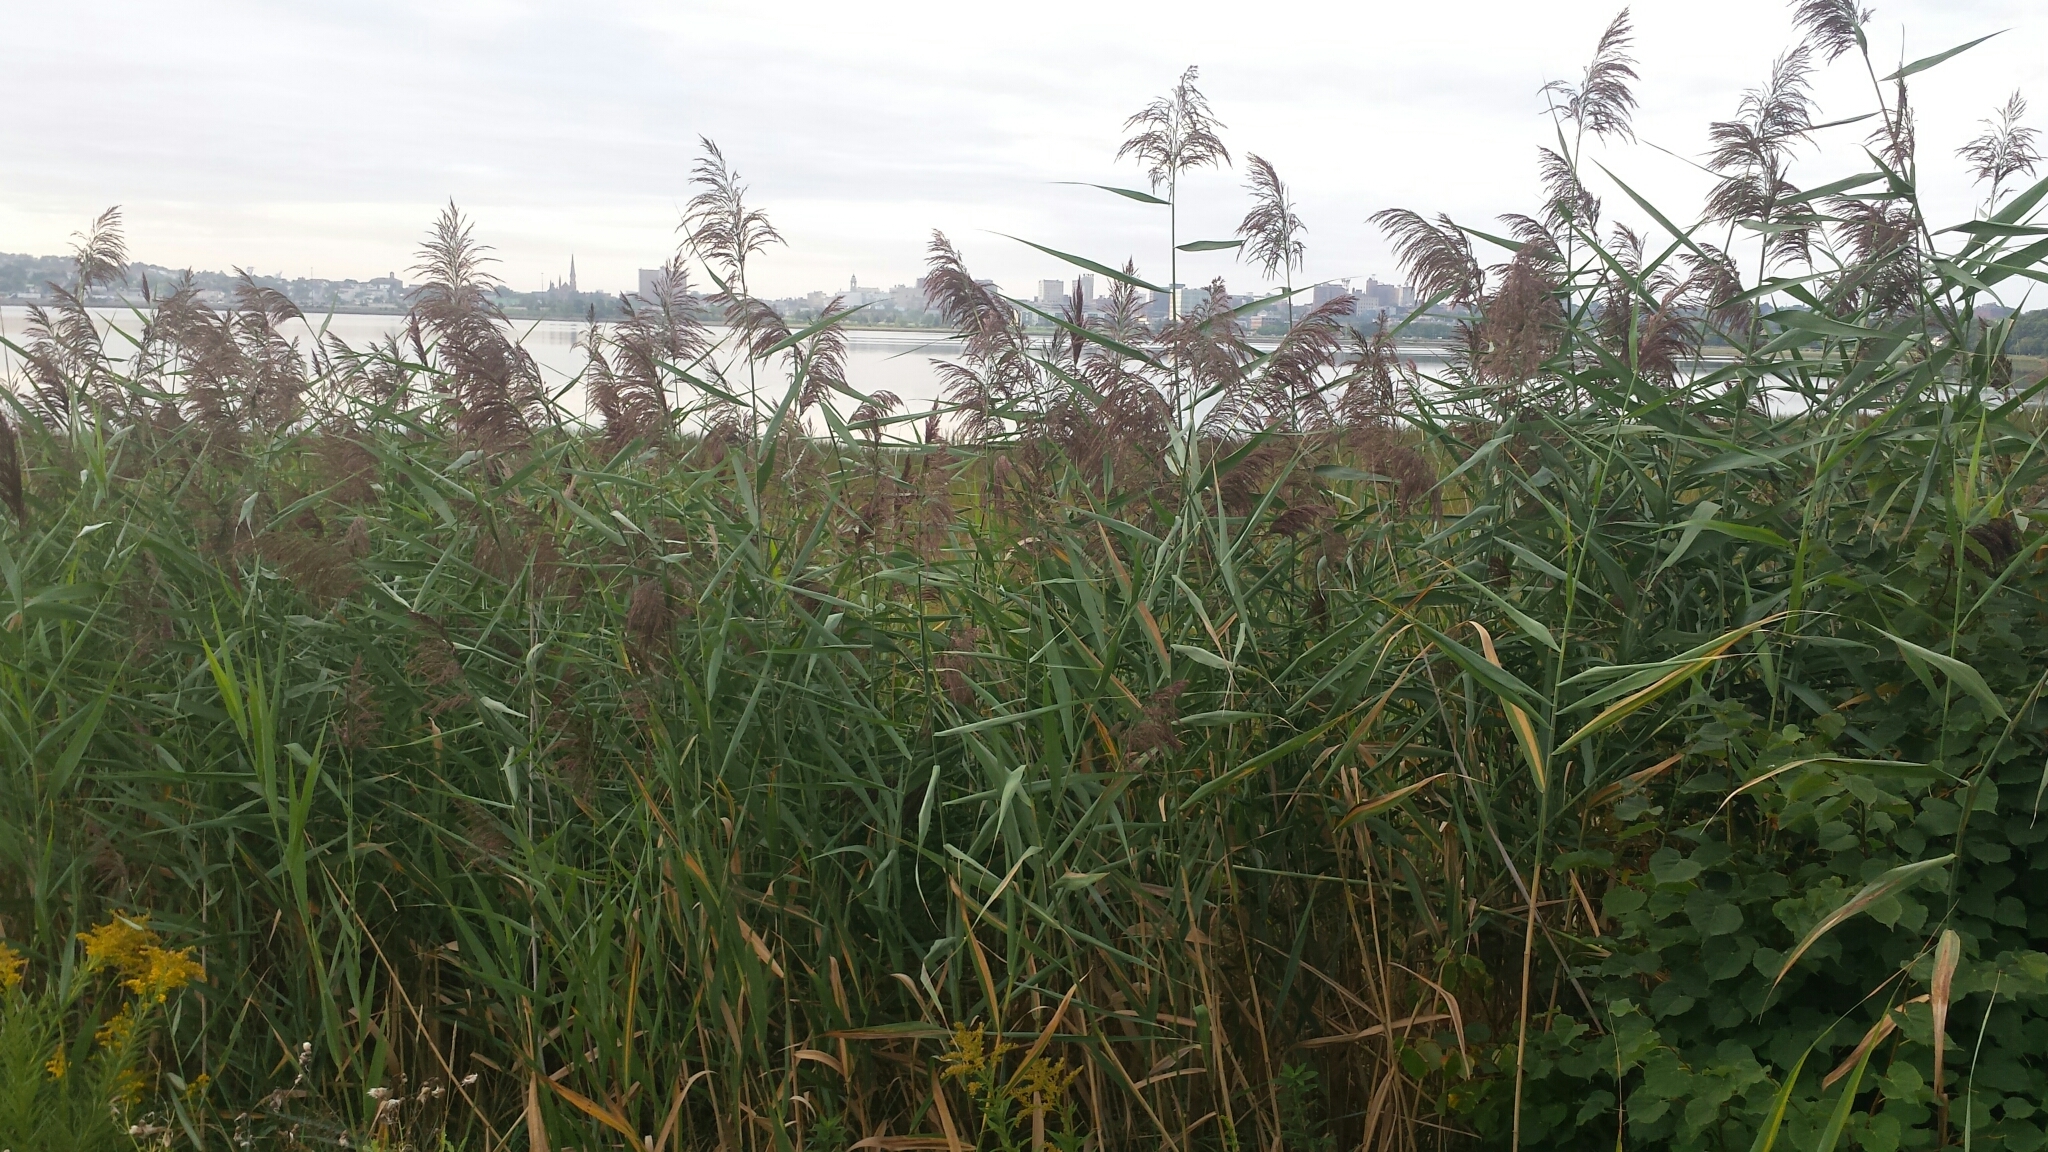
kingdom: Plantae
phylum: Tracheophyta
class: Liliopsida
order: Poales
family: Poaceae
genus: Phragmites
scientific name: Phragmites australis
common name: Common reed
